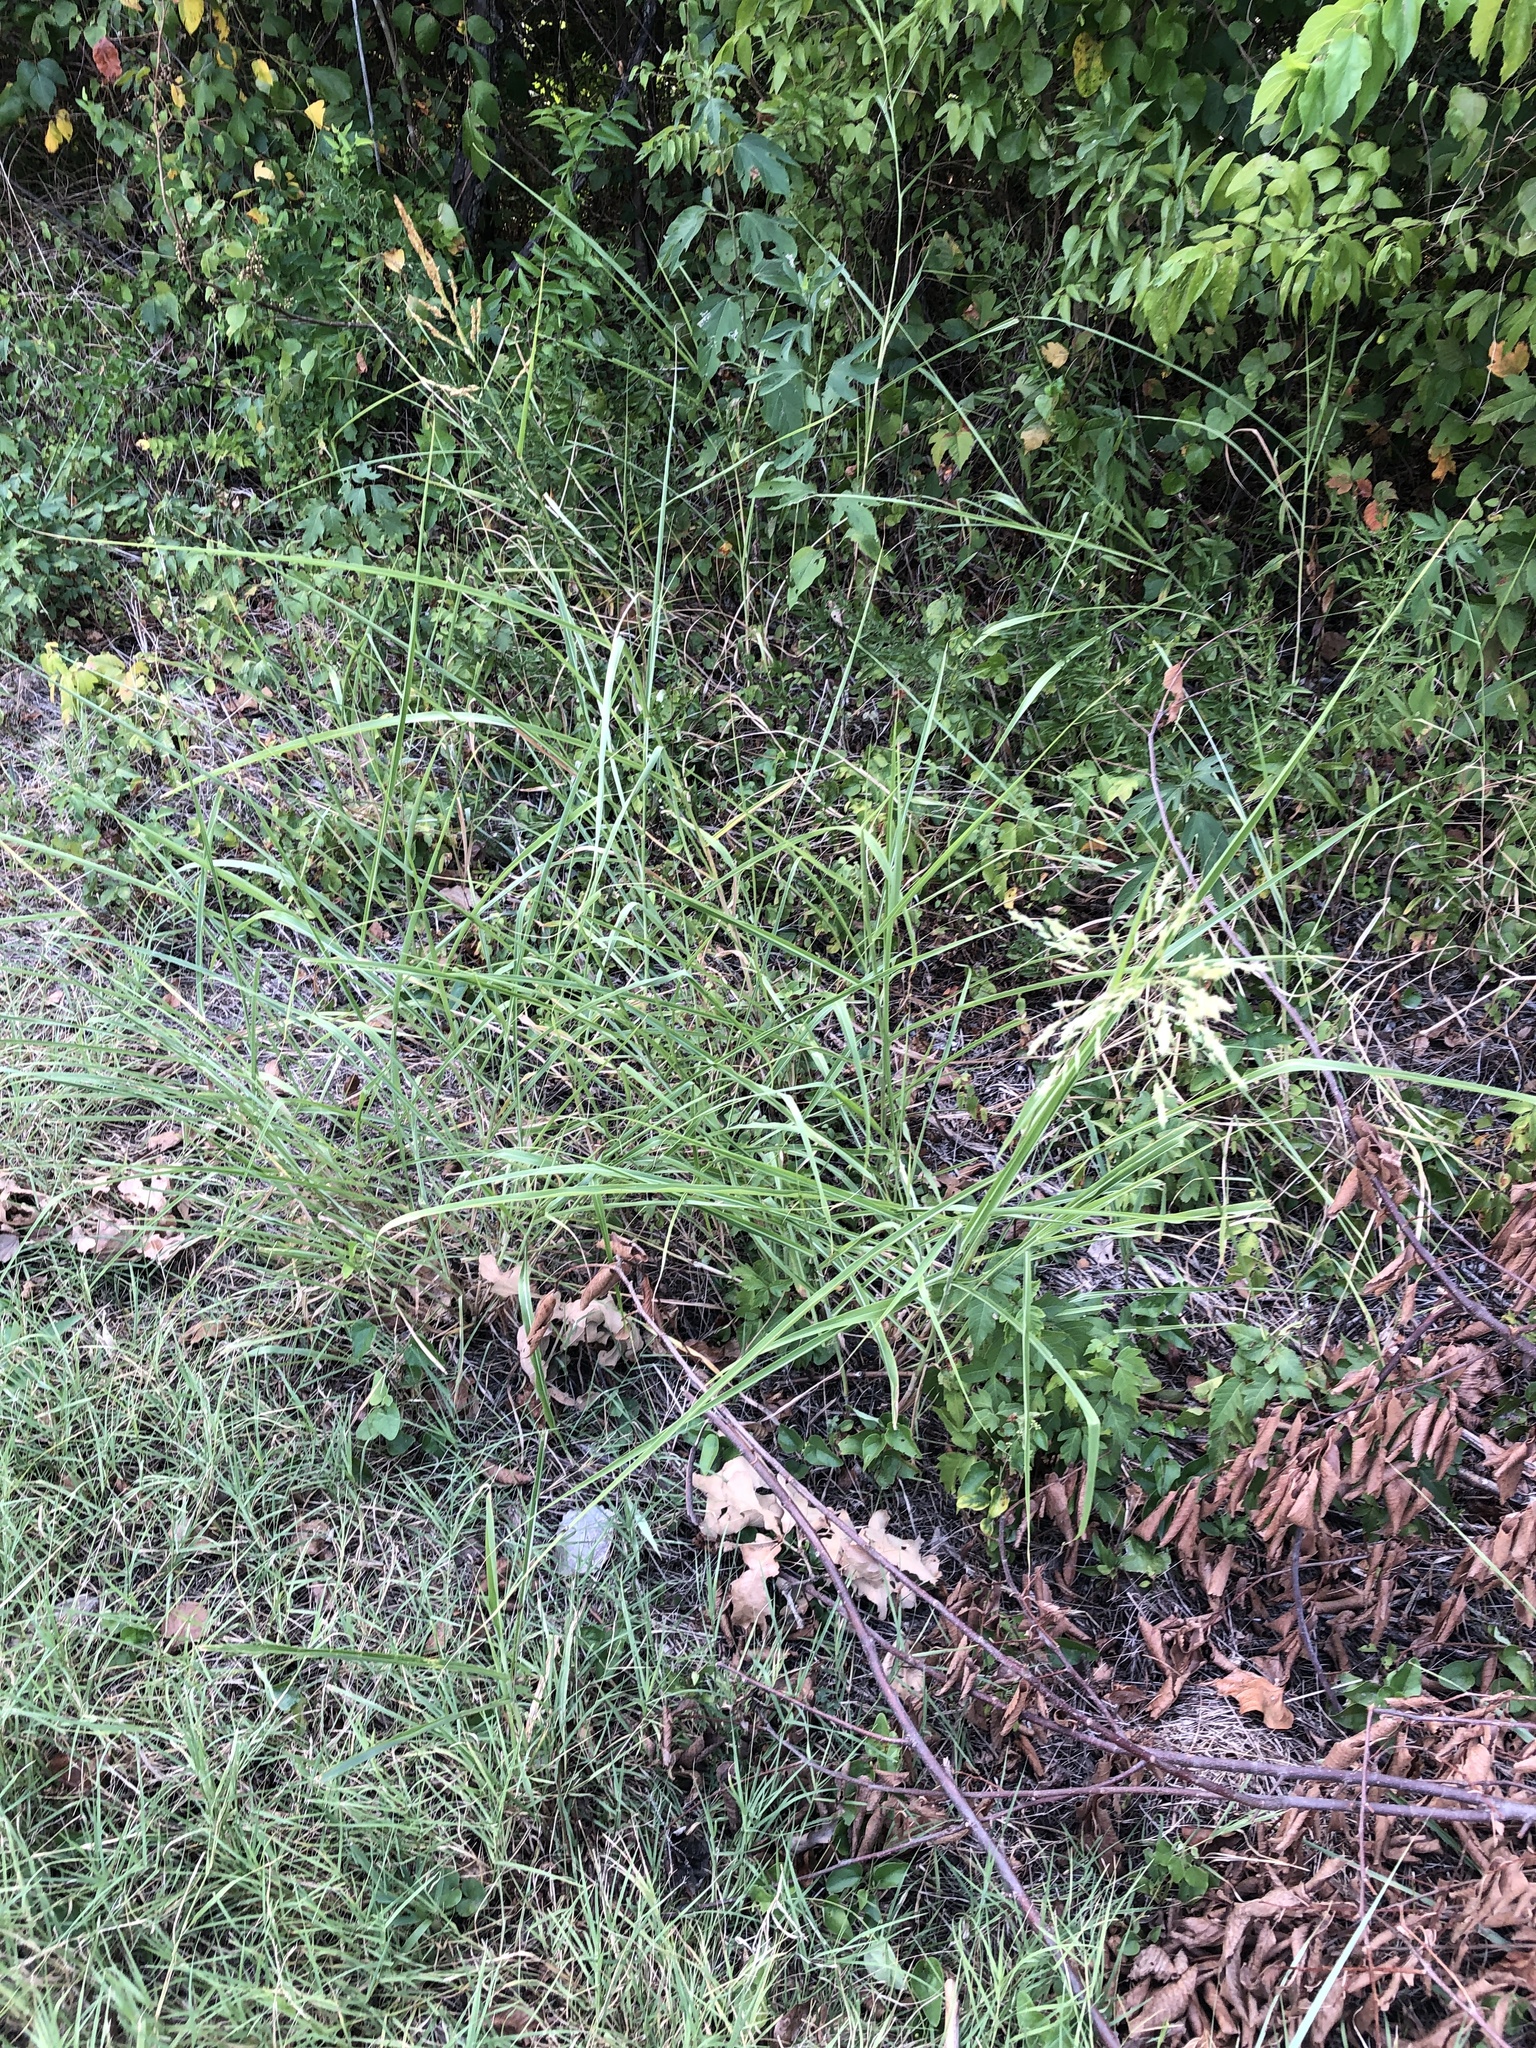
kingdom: Plantae
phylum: Tracheophyta
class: Liliopsida
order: Poales
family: Poaceae
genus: Sorghum
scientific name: Sorghum halepense
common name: Johnson-grass
